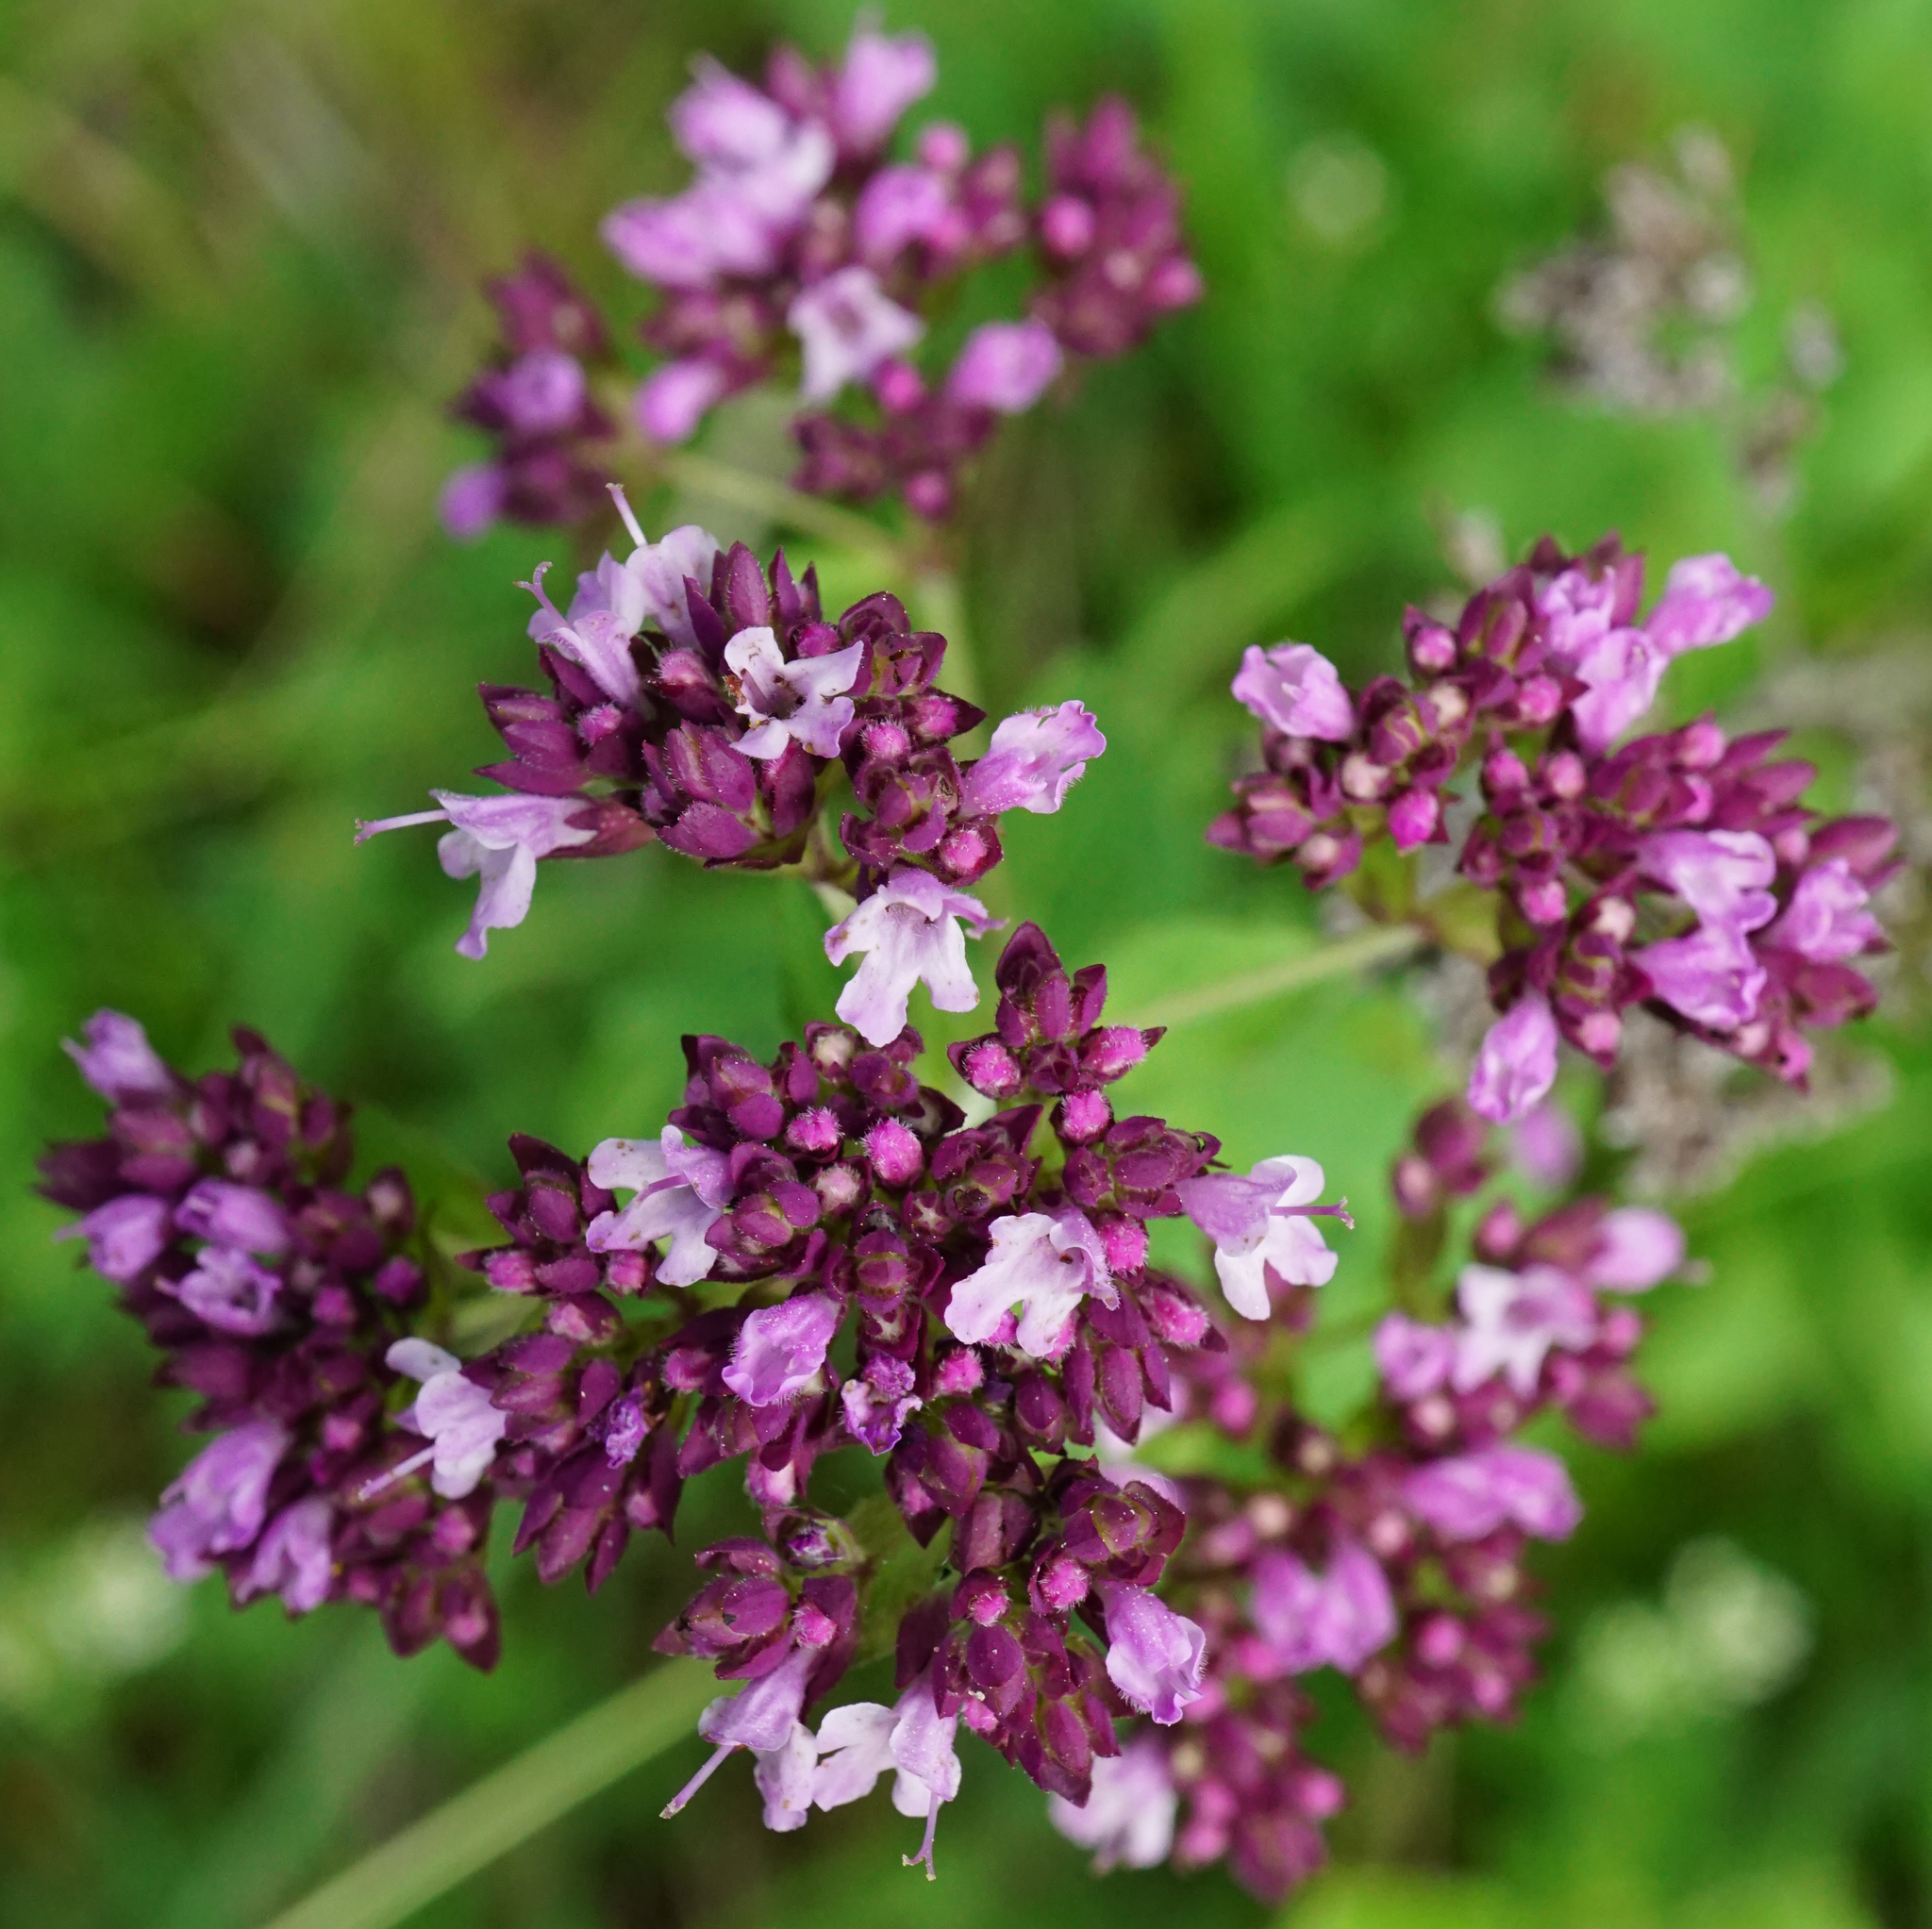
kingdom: Plantae
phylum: Tracheophyta
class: Magnoliopsida
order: Lamiales
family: Lamiaceae
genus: Origanum
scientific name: Origanum vulgare
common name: Wild marjoram
